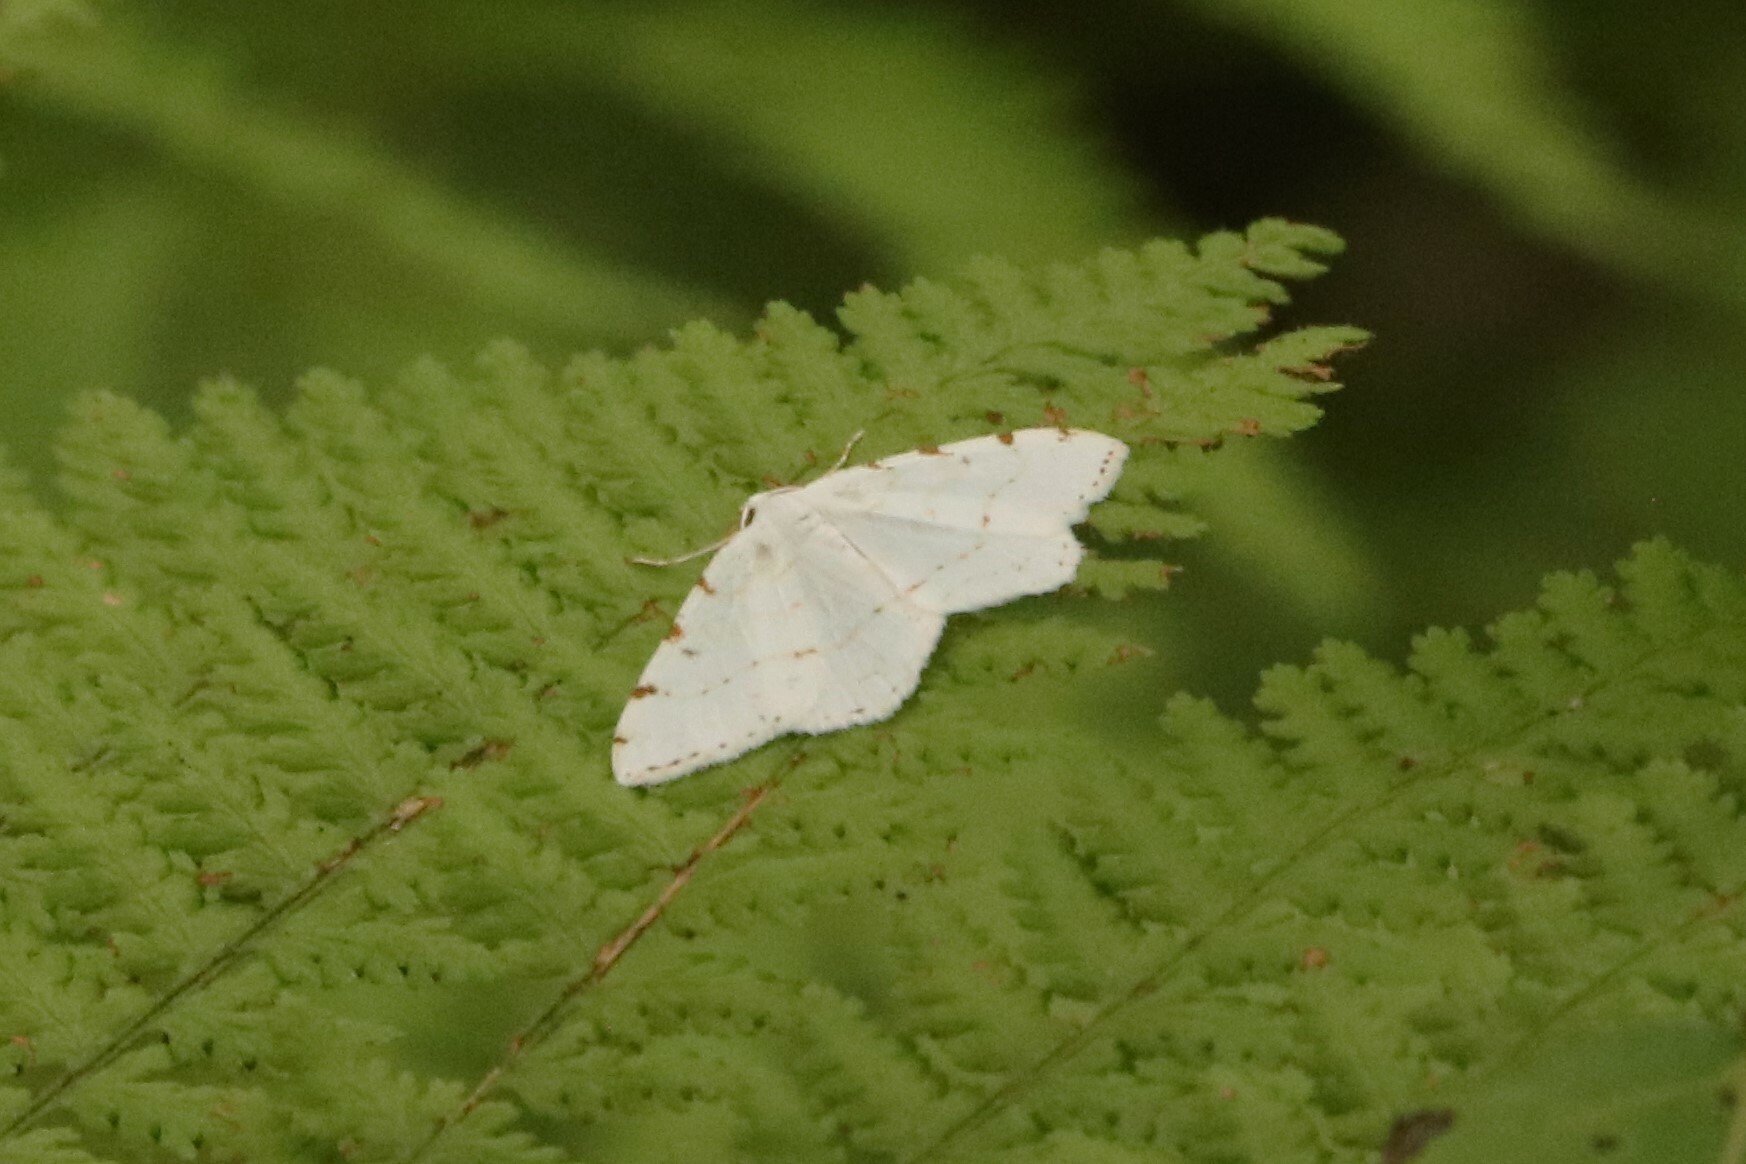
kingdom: Animalia
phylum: Arthropoda
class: Insecta
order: Lepidoptera
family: Geometridae
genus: Macaria
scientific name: Macaria pustularia
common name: Lesser maple spanworm moth
